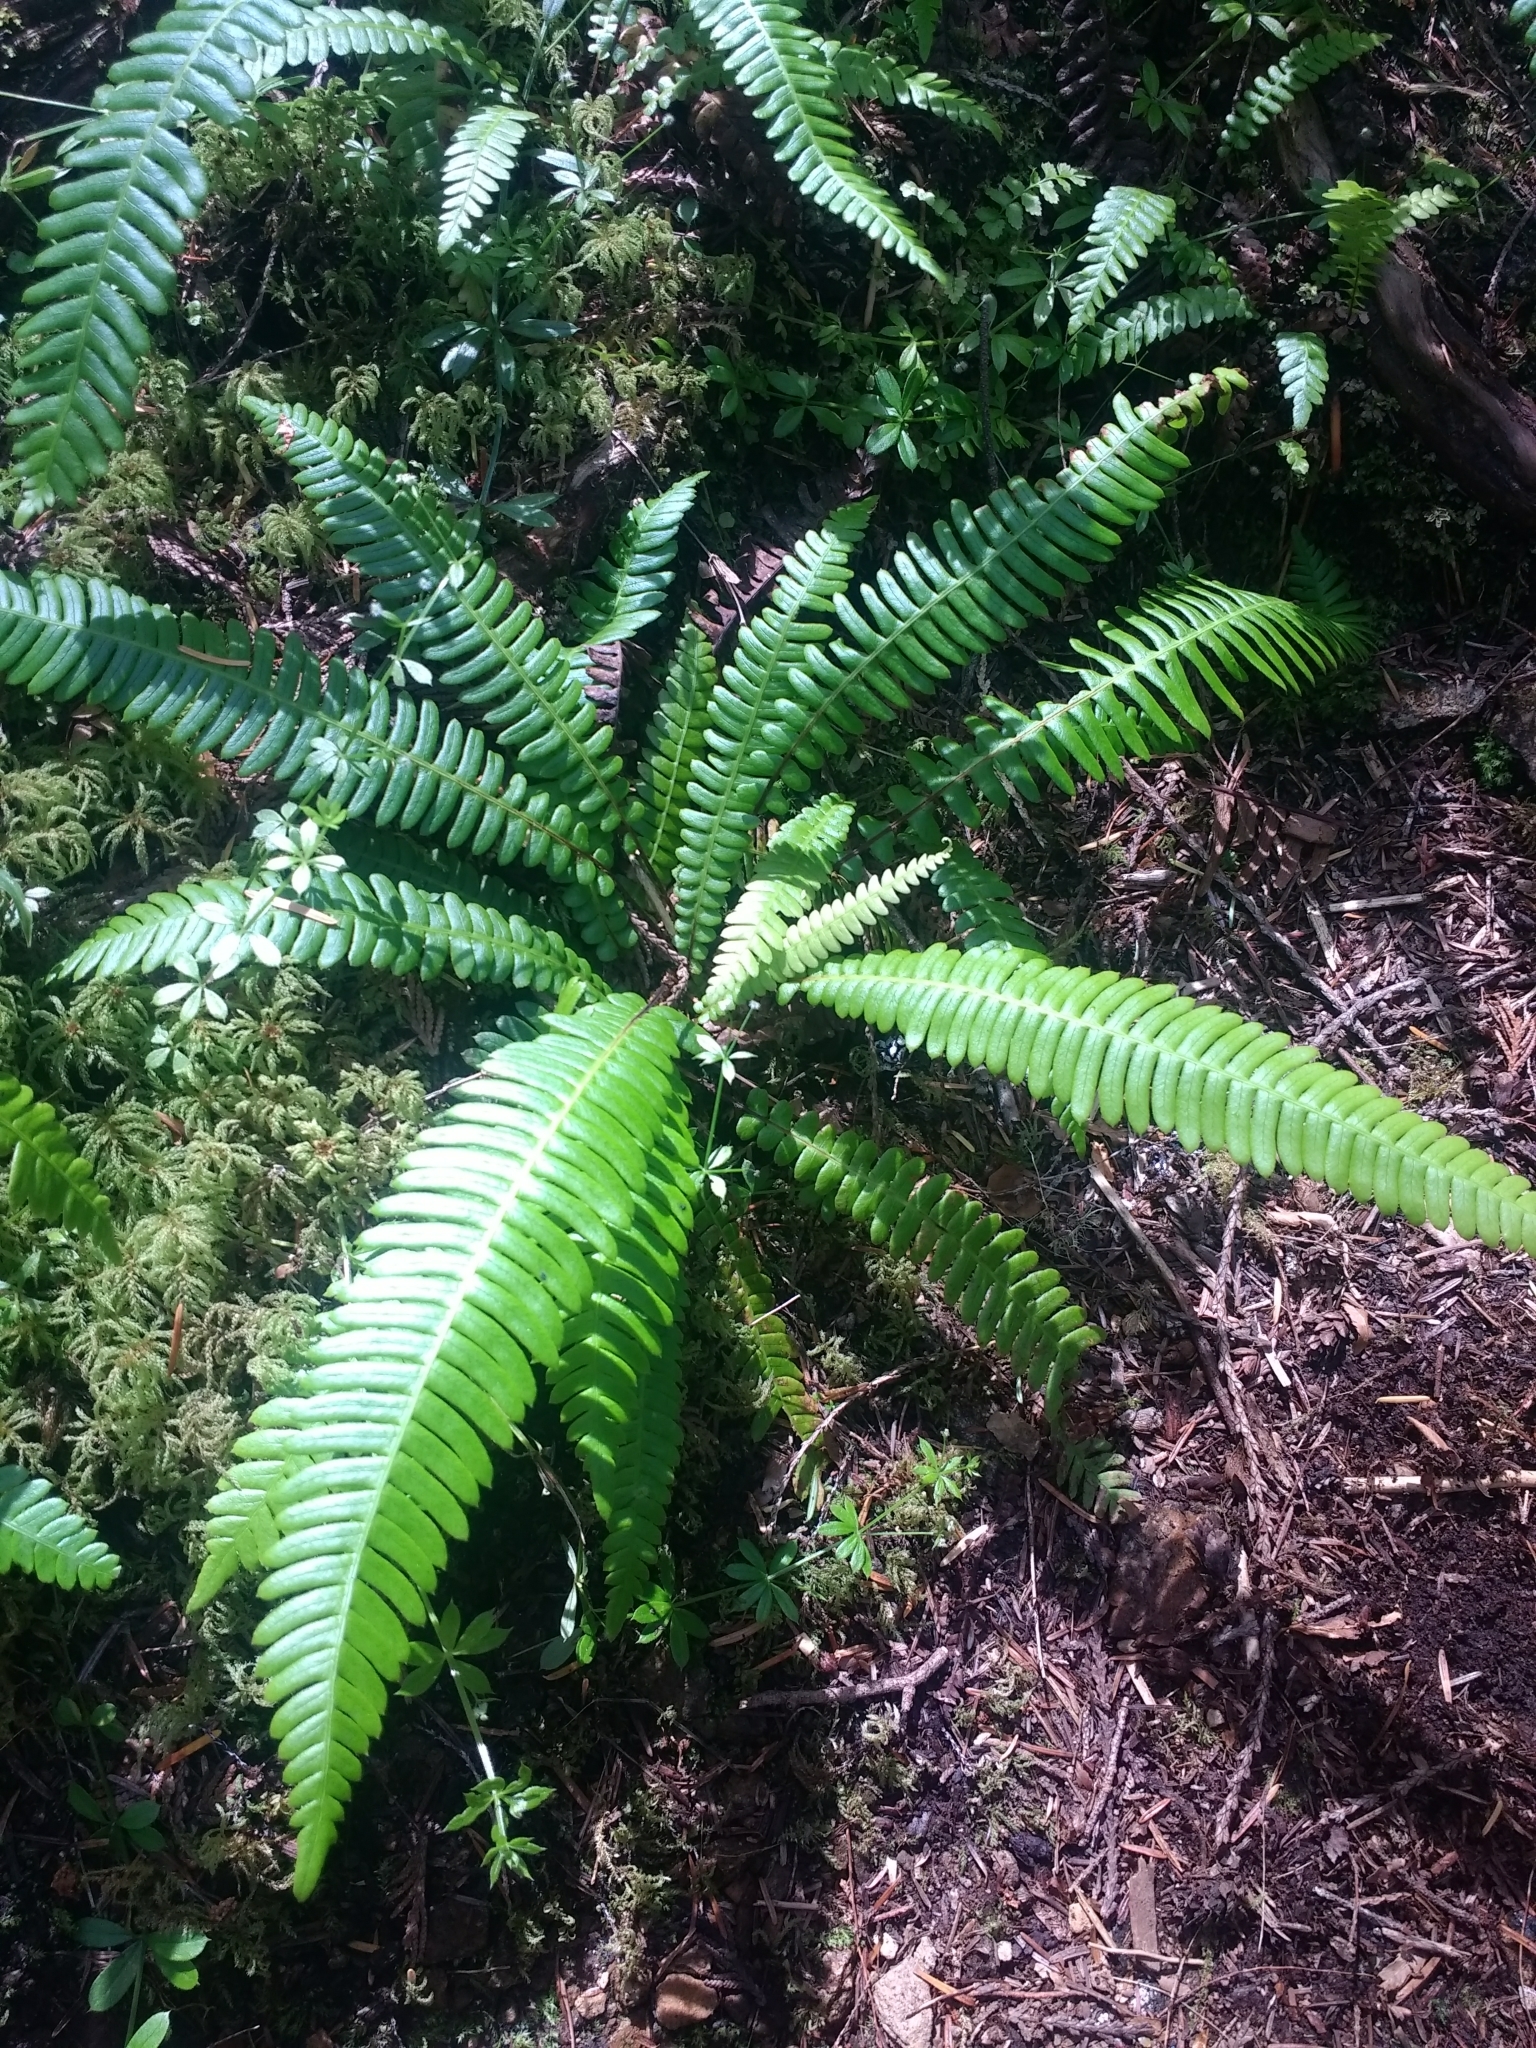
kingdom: Plantae
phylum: Tracheophyta
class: Polypodiopsida
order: Polypodiales
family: Blechnaceae
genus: Struthiopteris
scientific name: Struthiopteris spicant
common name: Deer fern
